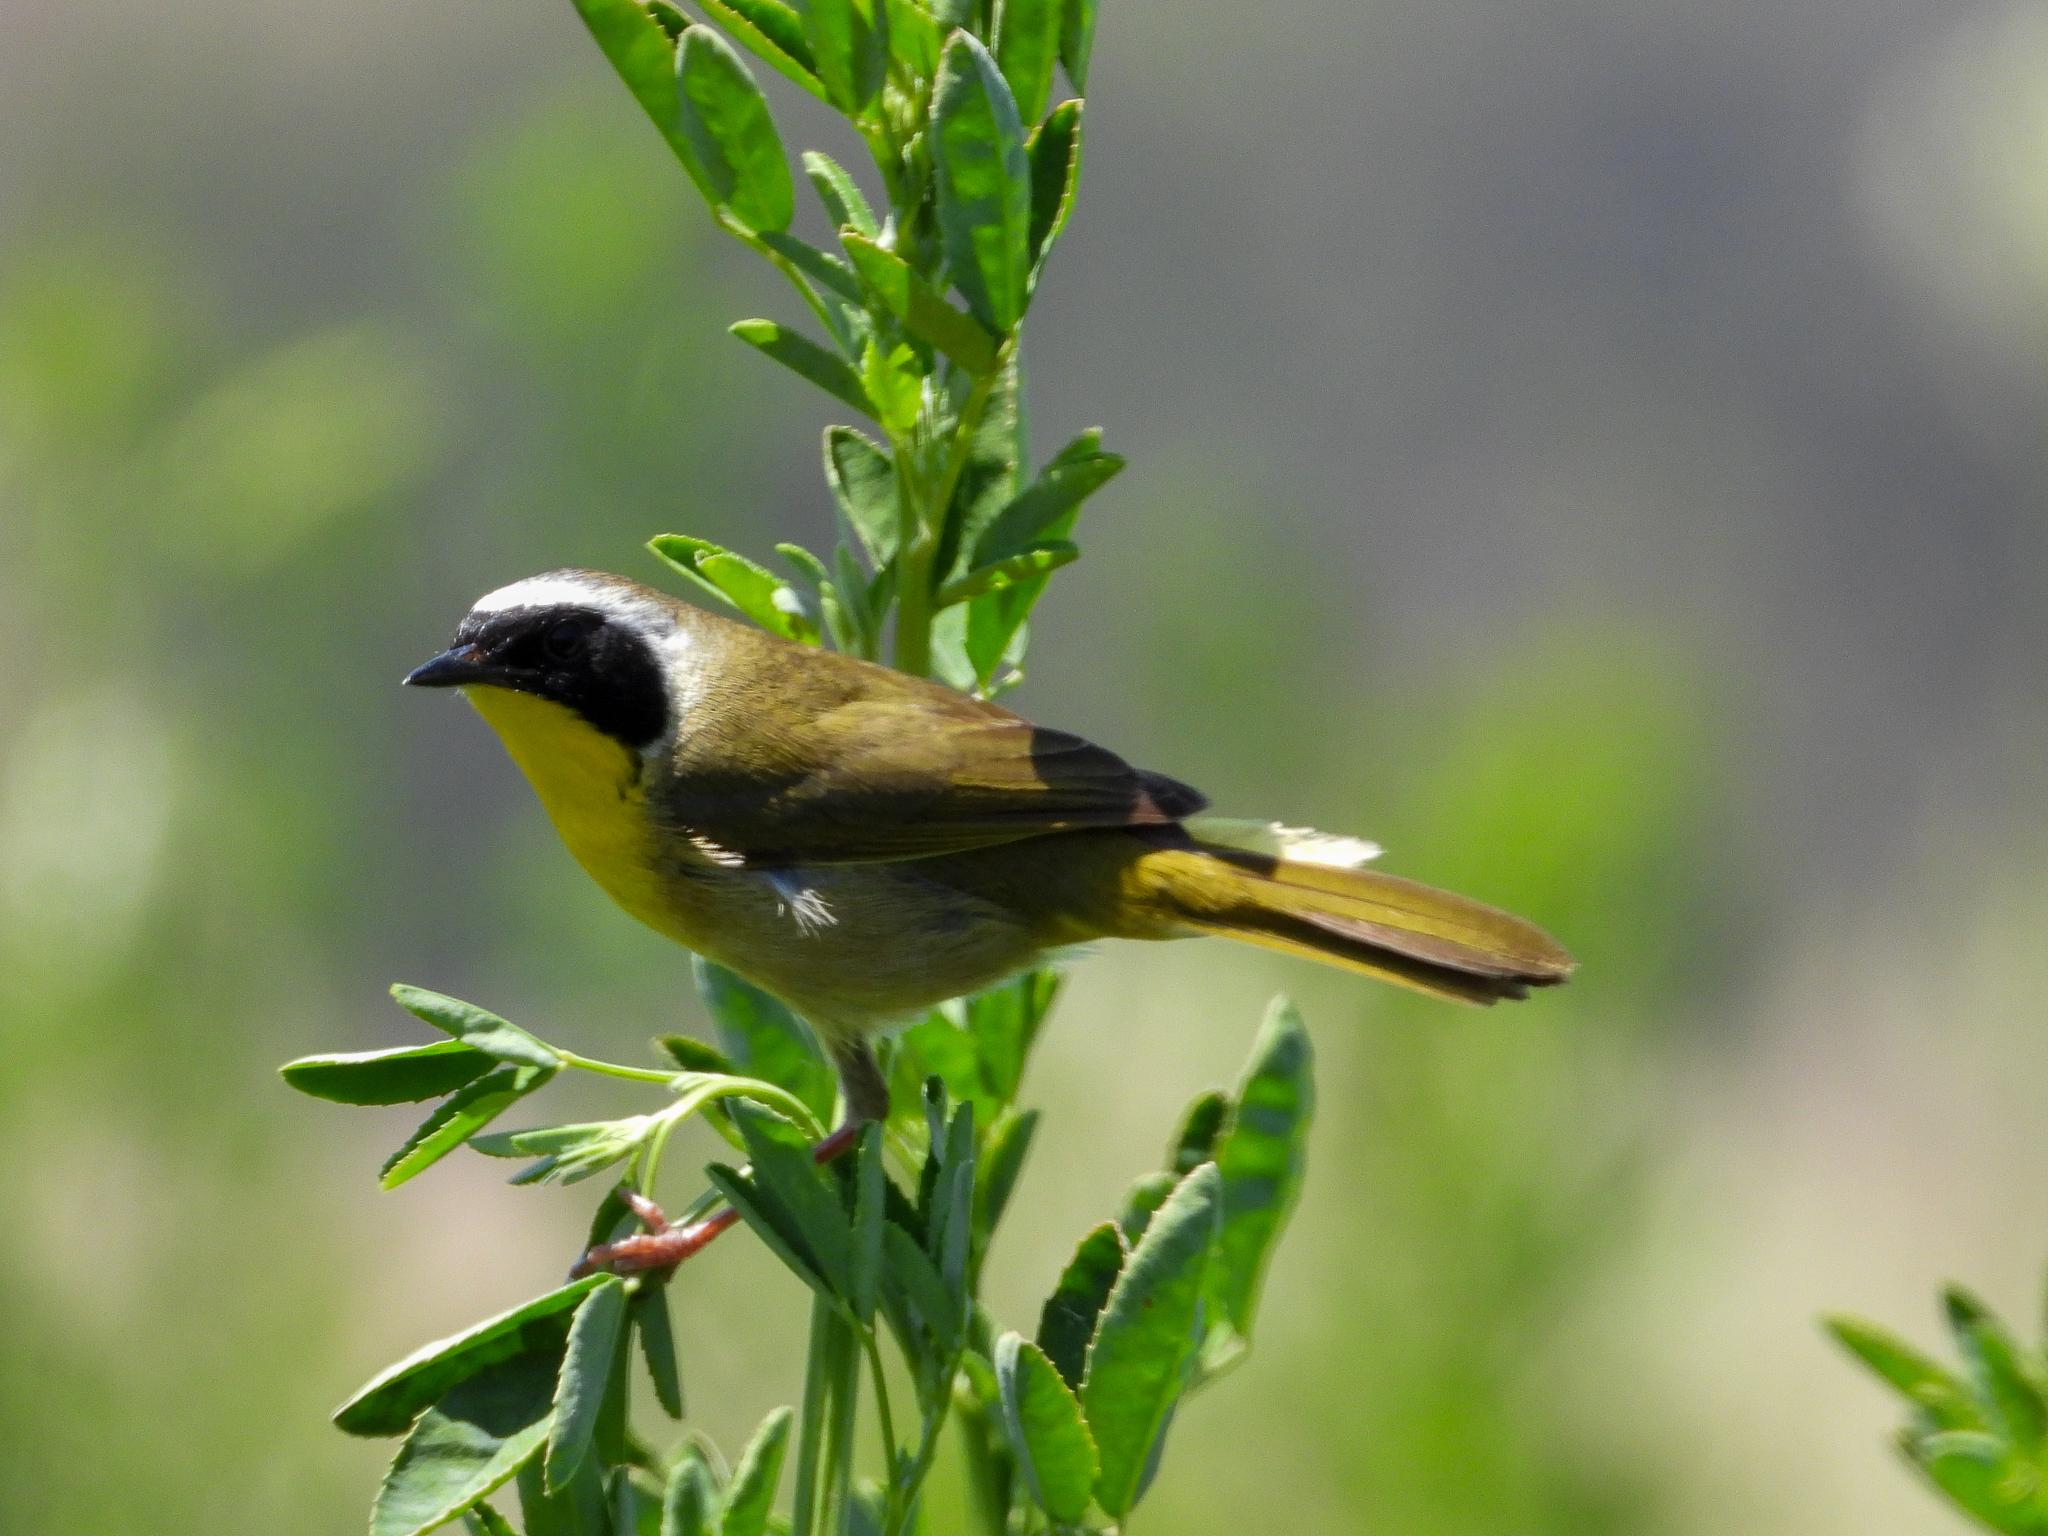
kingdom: Animalia
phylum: Chordata
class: Aves
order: Passeriformes
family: Parulidae
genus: Geothlypis
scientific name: Geothlypis trichas
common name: Common yellowthroat
